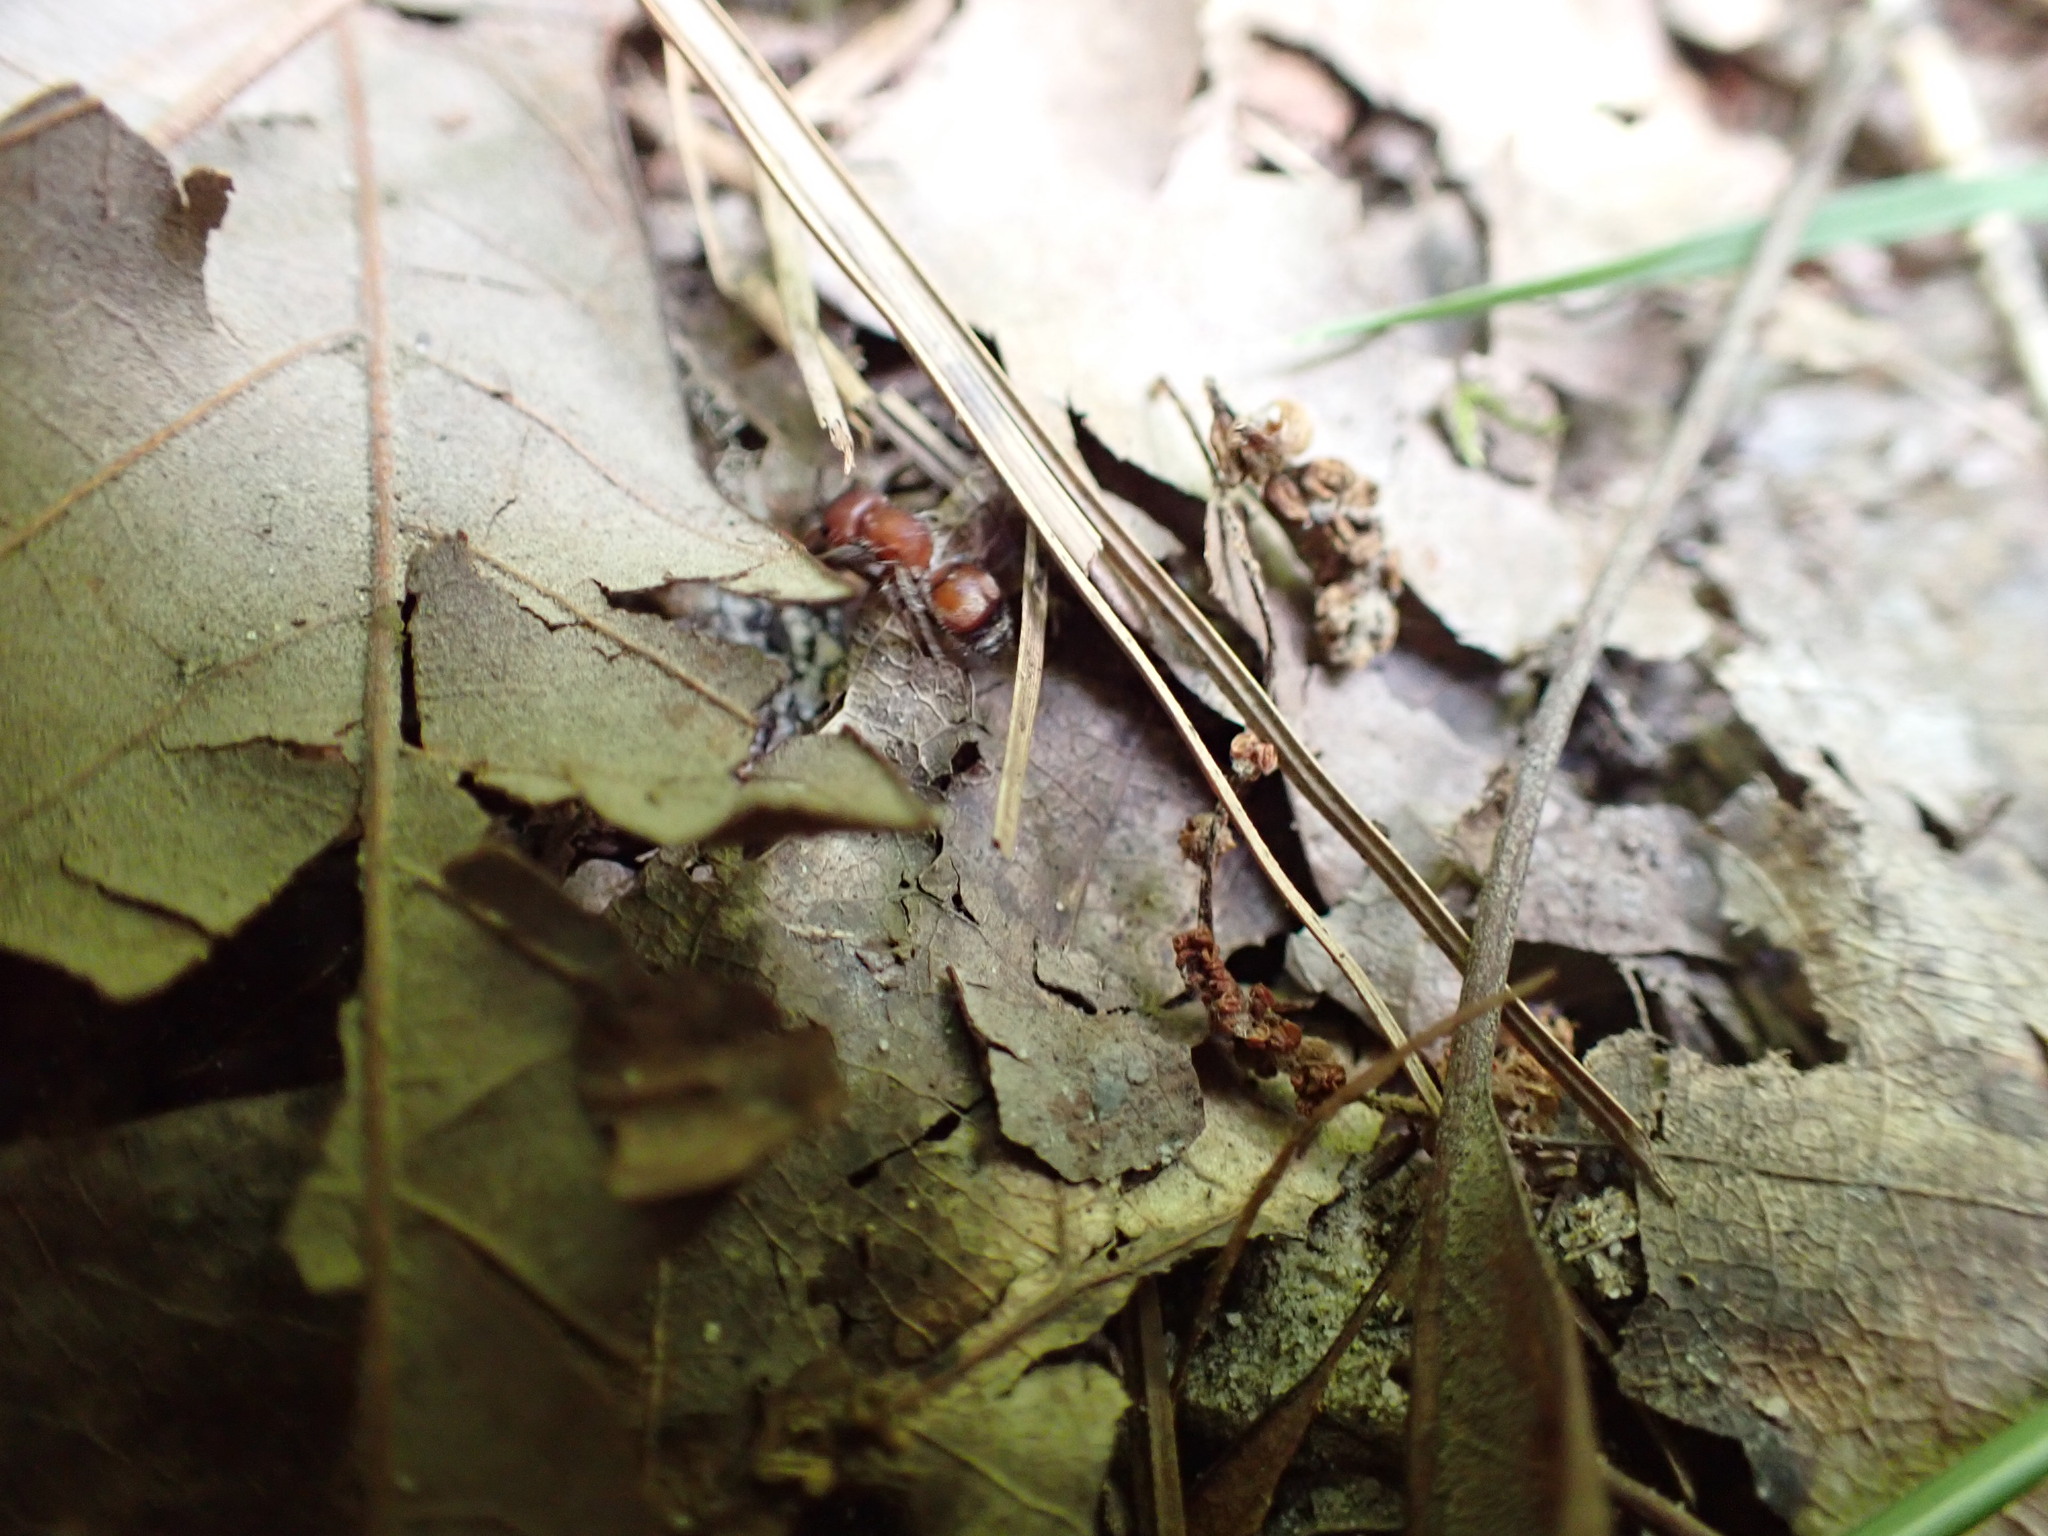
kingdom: Animalia
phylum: Arthropoda
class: Insecta
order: Hymenoptera
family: Mutillidae
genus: Pseudomethoca
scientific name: Pseudomethoca
